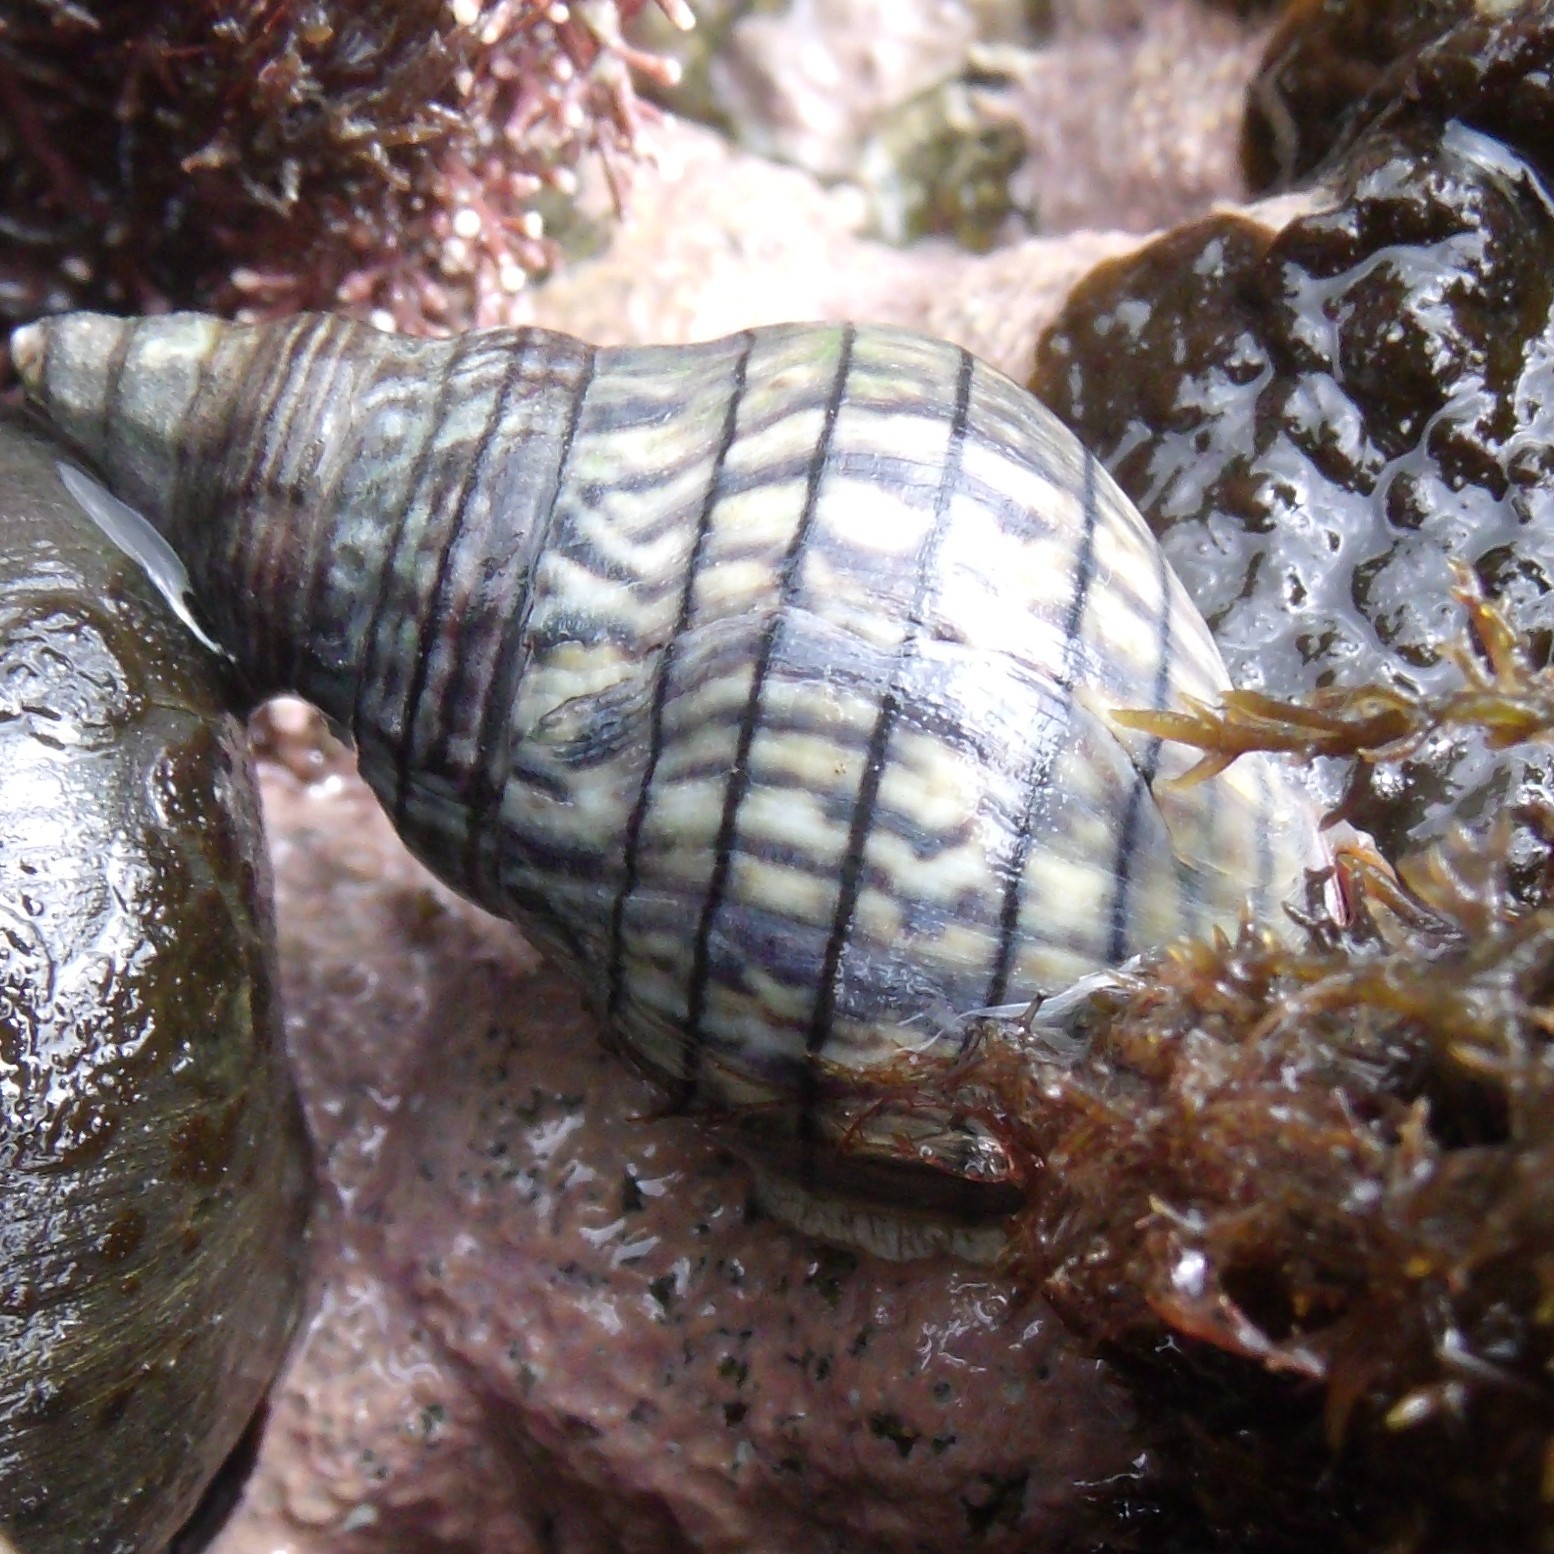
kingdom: Animalia
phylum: Mollusca
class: Gastropoda
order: Neogastropoda
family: Cominellidae
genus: Cominella
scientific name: Cominella virgata
